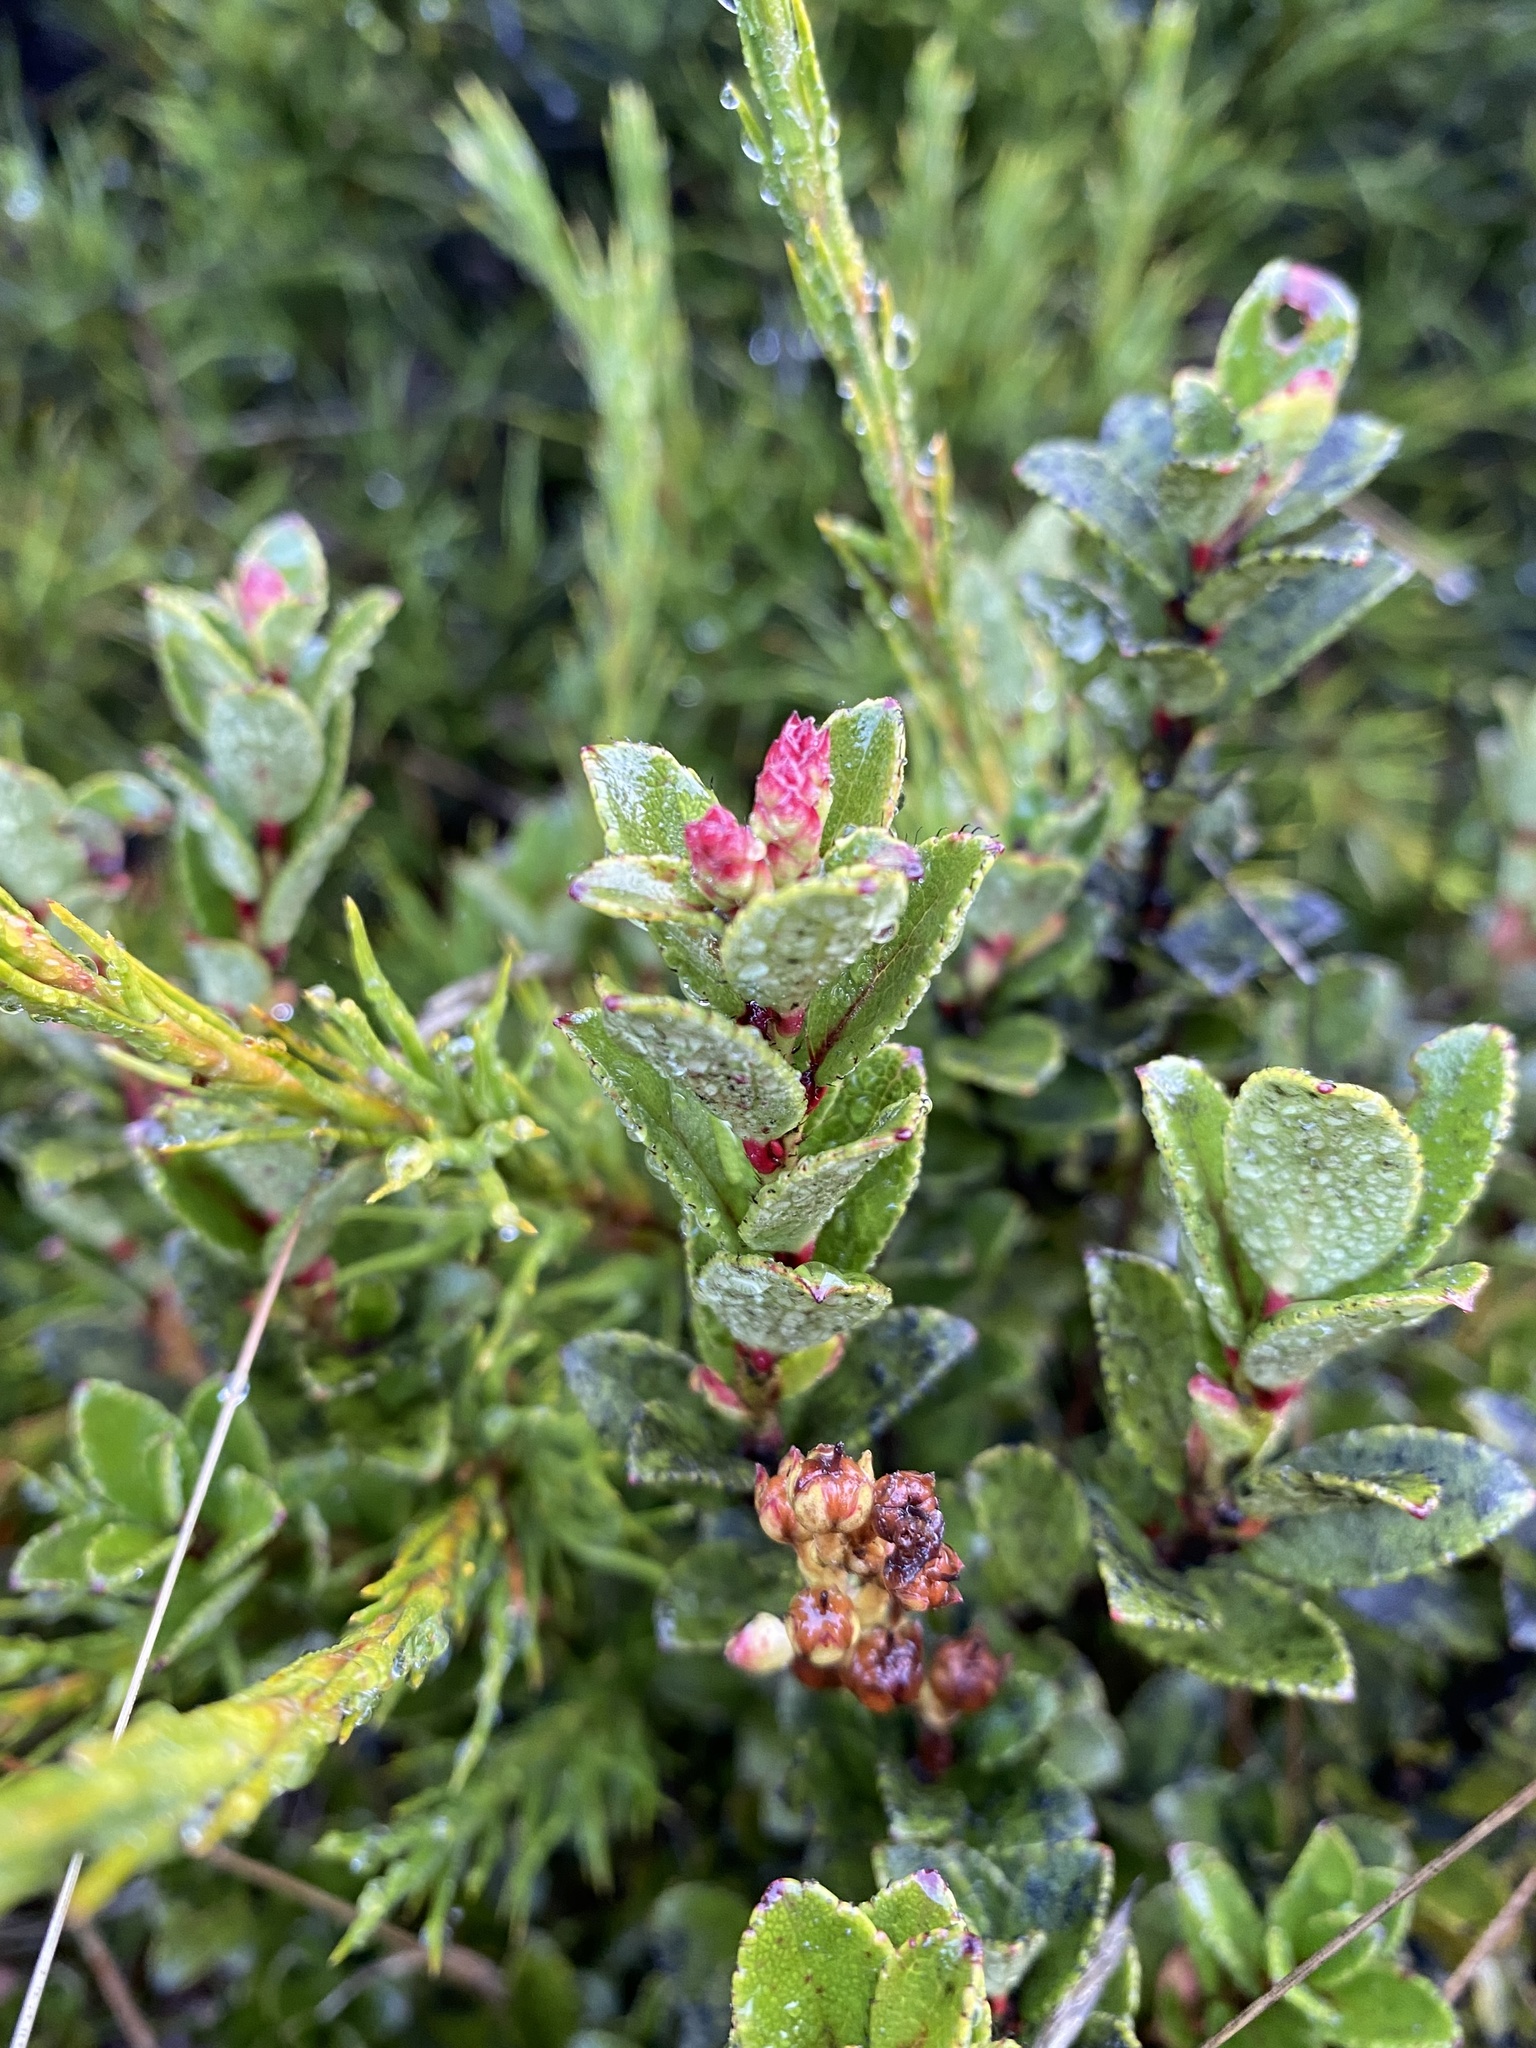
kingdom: Plantae
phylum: Tracheophyta
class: Magnoliopsida
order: Ericales
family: Ericaceae
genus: Gaultheria
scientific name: Gaultheria crassa
